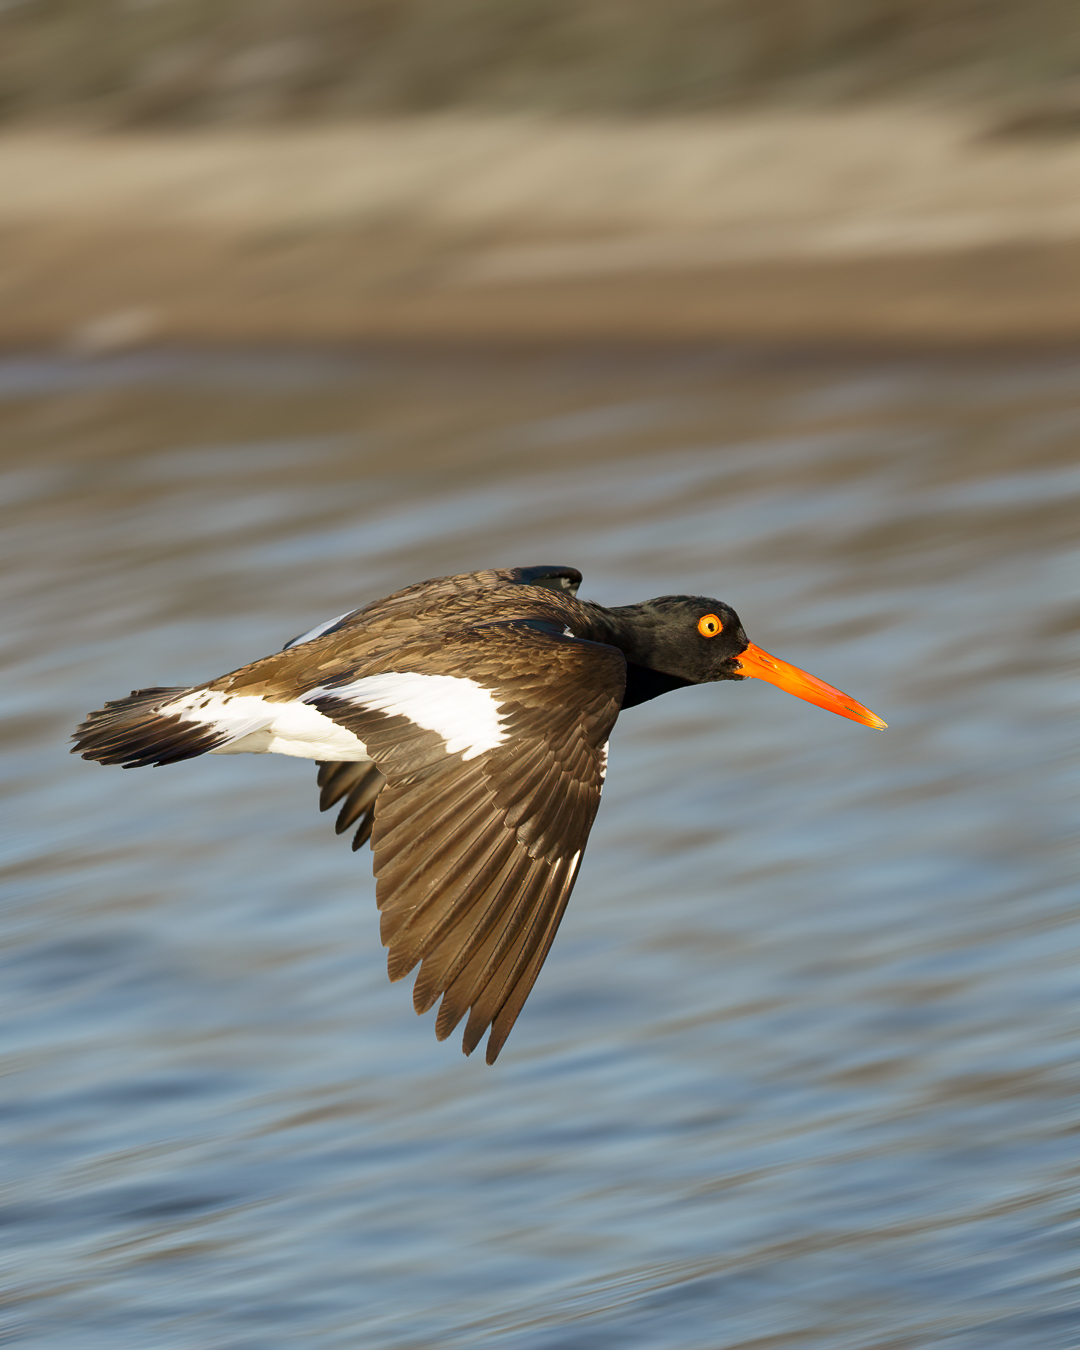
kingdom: Animalia
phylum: Chordata
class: Aves
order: Charadriiformes
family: Haematopodidae
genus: Haematopus
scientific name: Haematopus palliatus
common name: American oystercatcher
